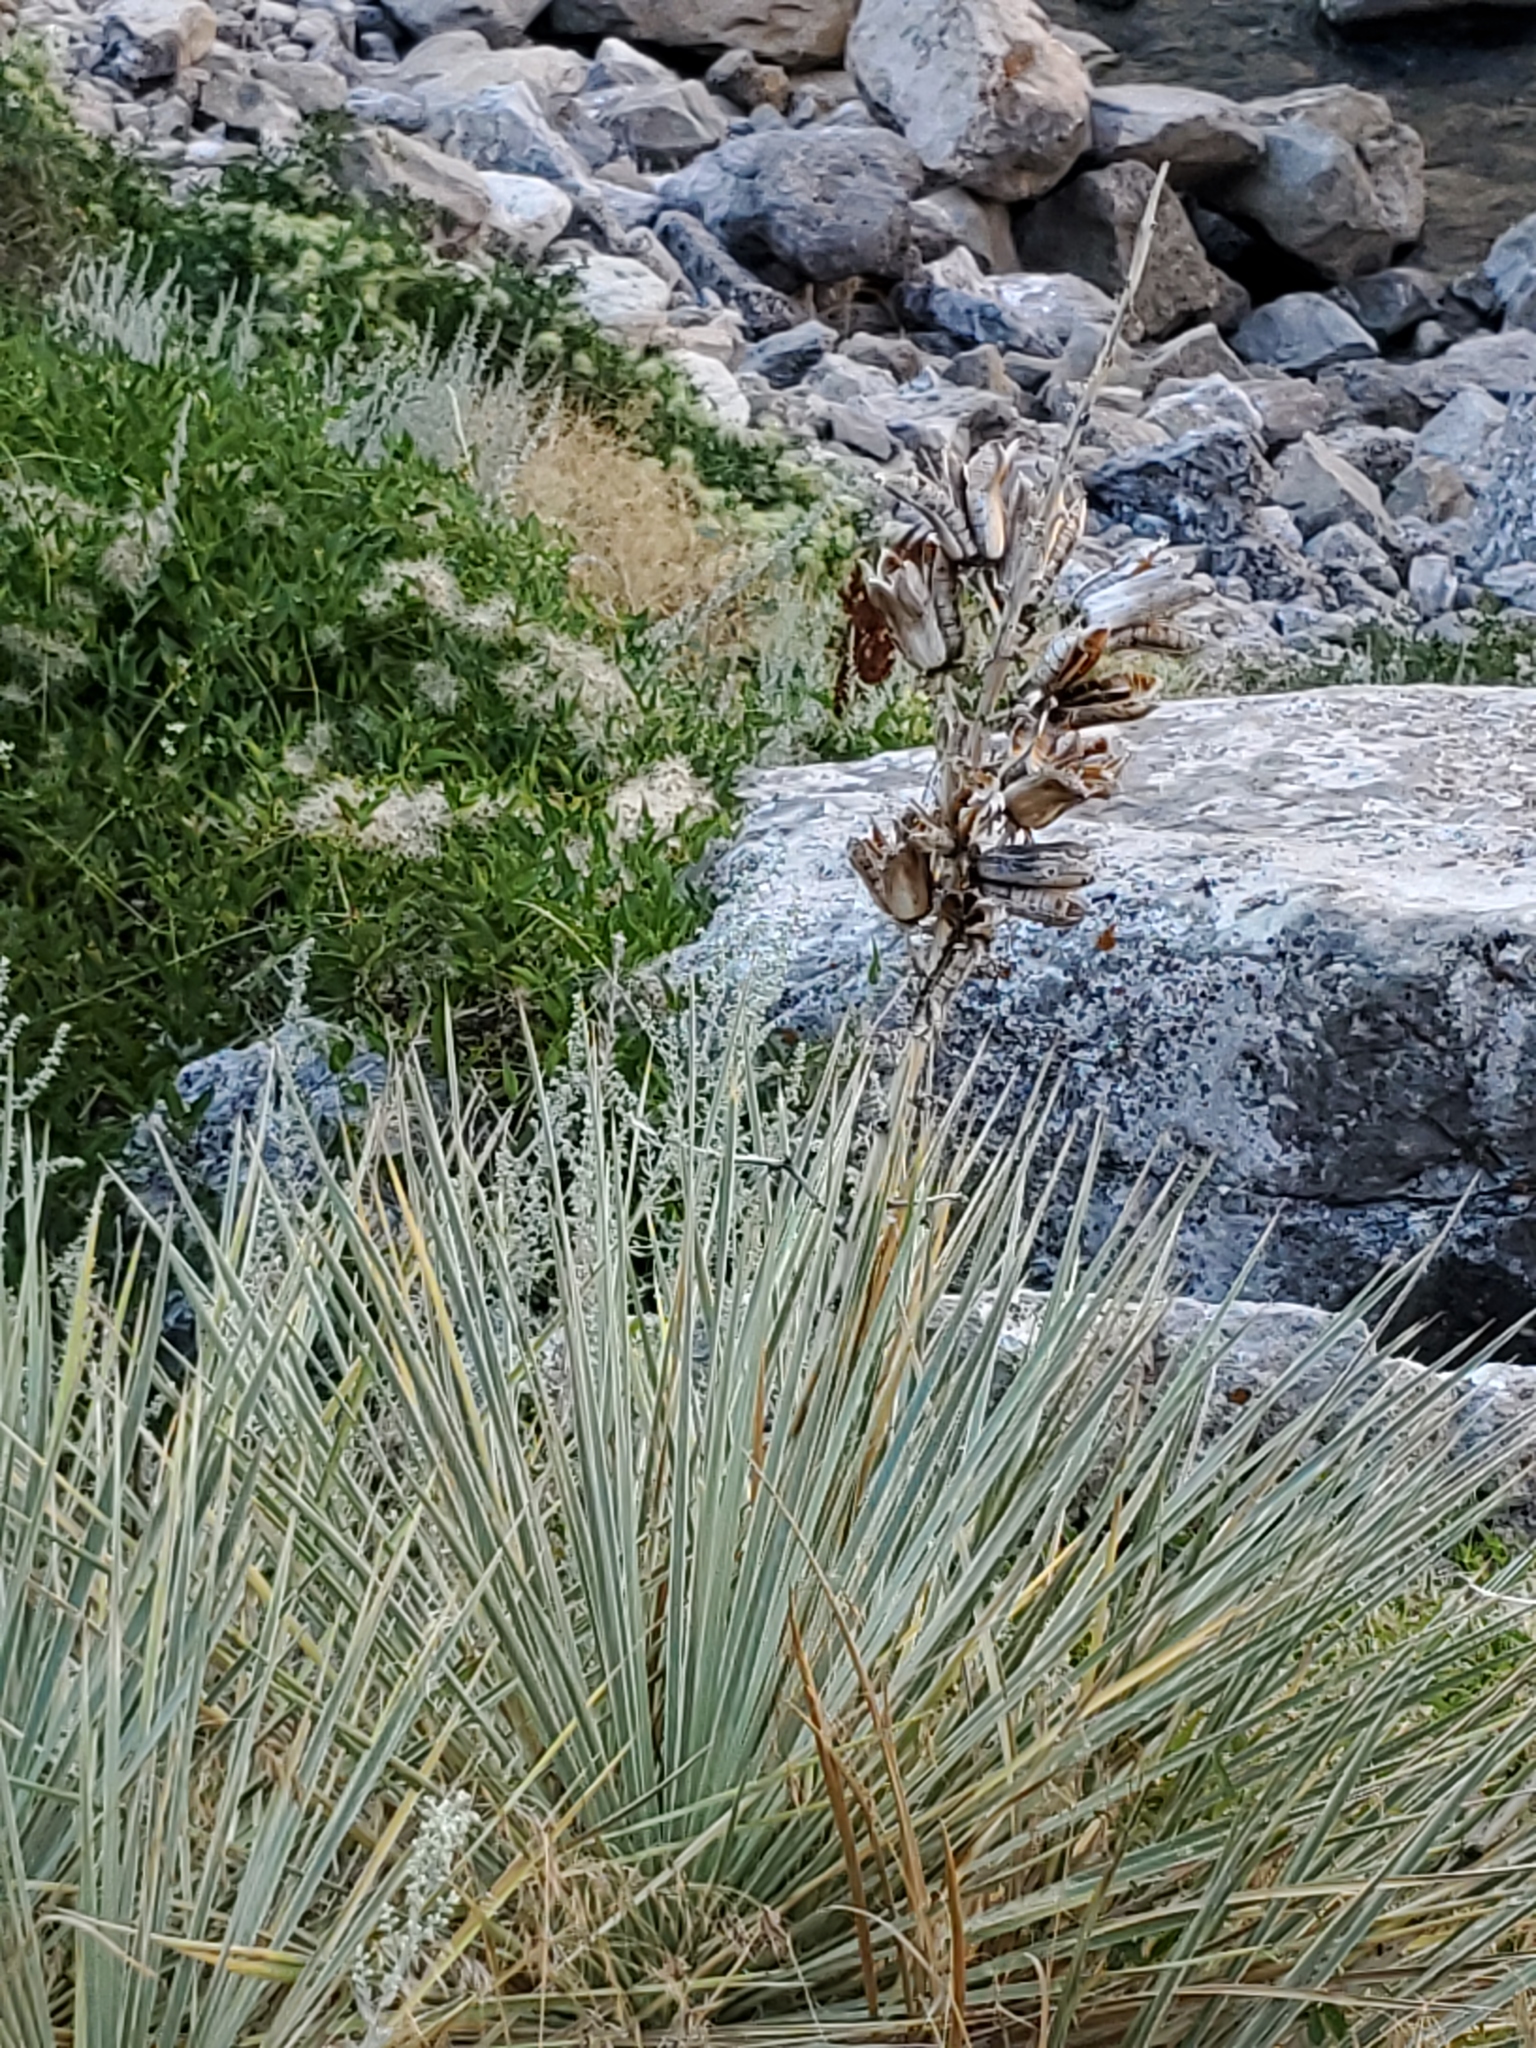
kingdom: Plantae
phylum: Tracheophyta
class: Liliopsida
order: Asparagales
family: Asparagaceae
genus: Yucca
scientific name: Yucca glauca
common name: Great plains yucca
